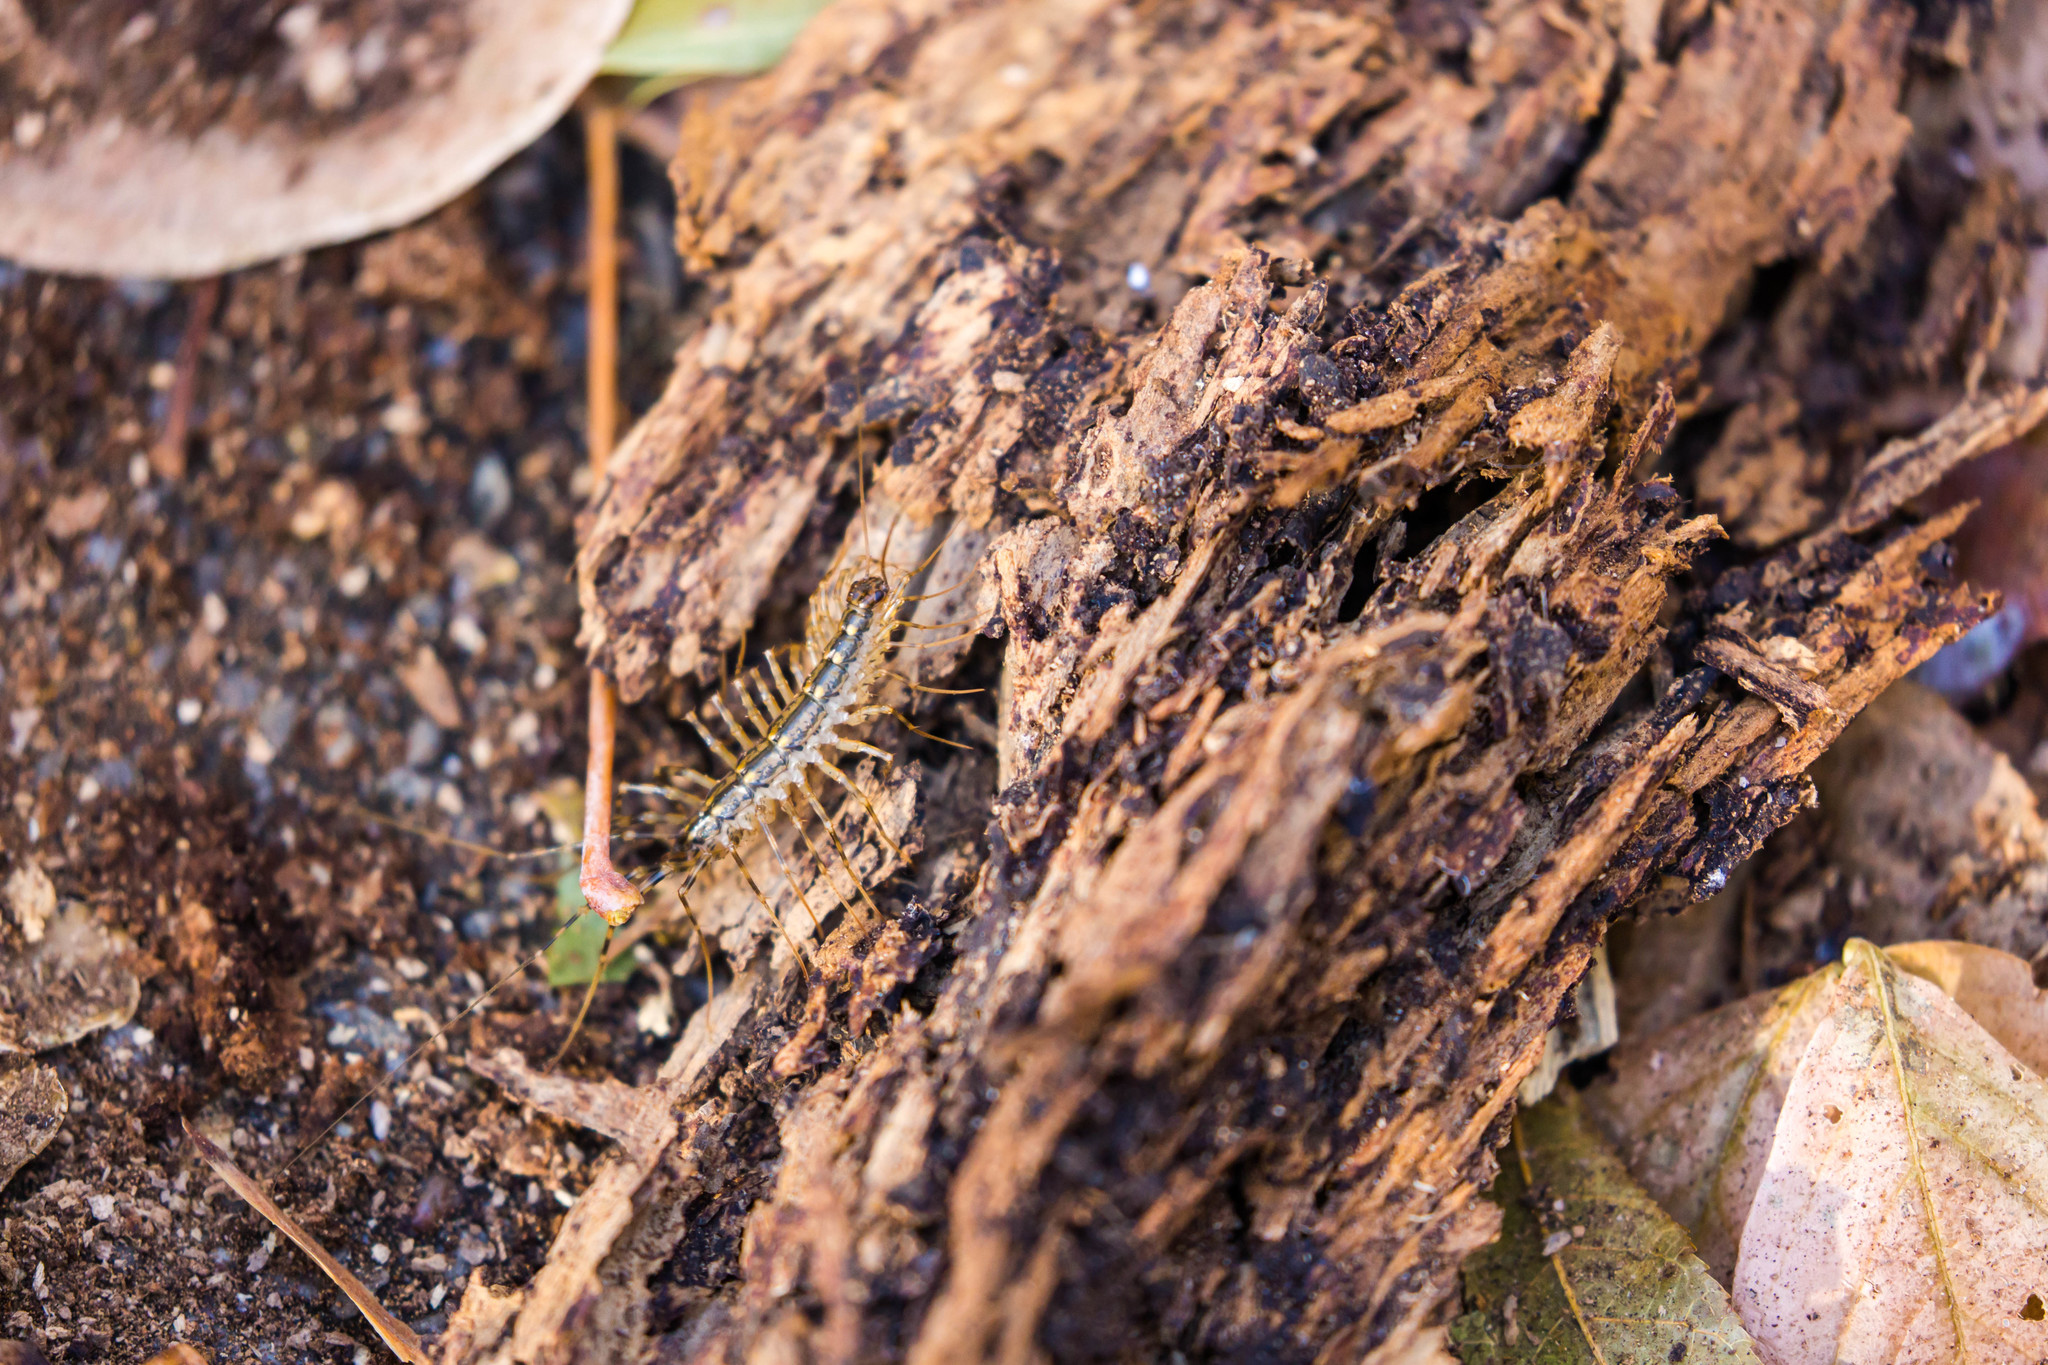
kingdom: Animalia
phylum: Arthropoda
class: Chilopoda
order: Scutigeromorpha
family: Scutigeridae
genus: Scutigera
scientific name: Scutigera coleoptrata
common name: House centipede
